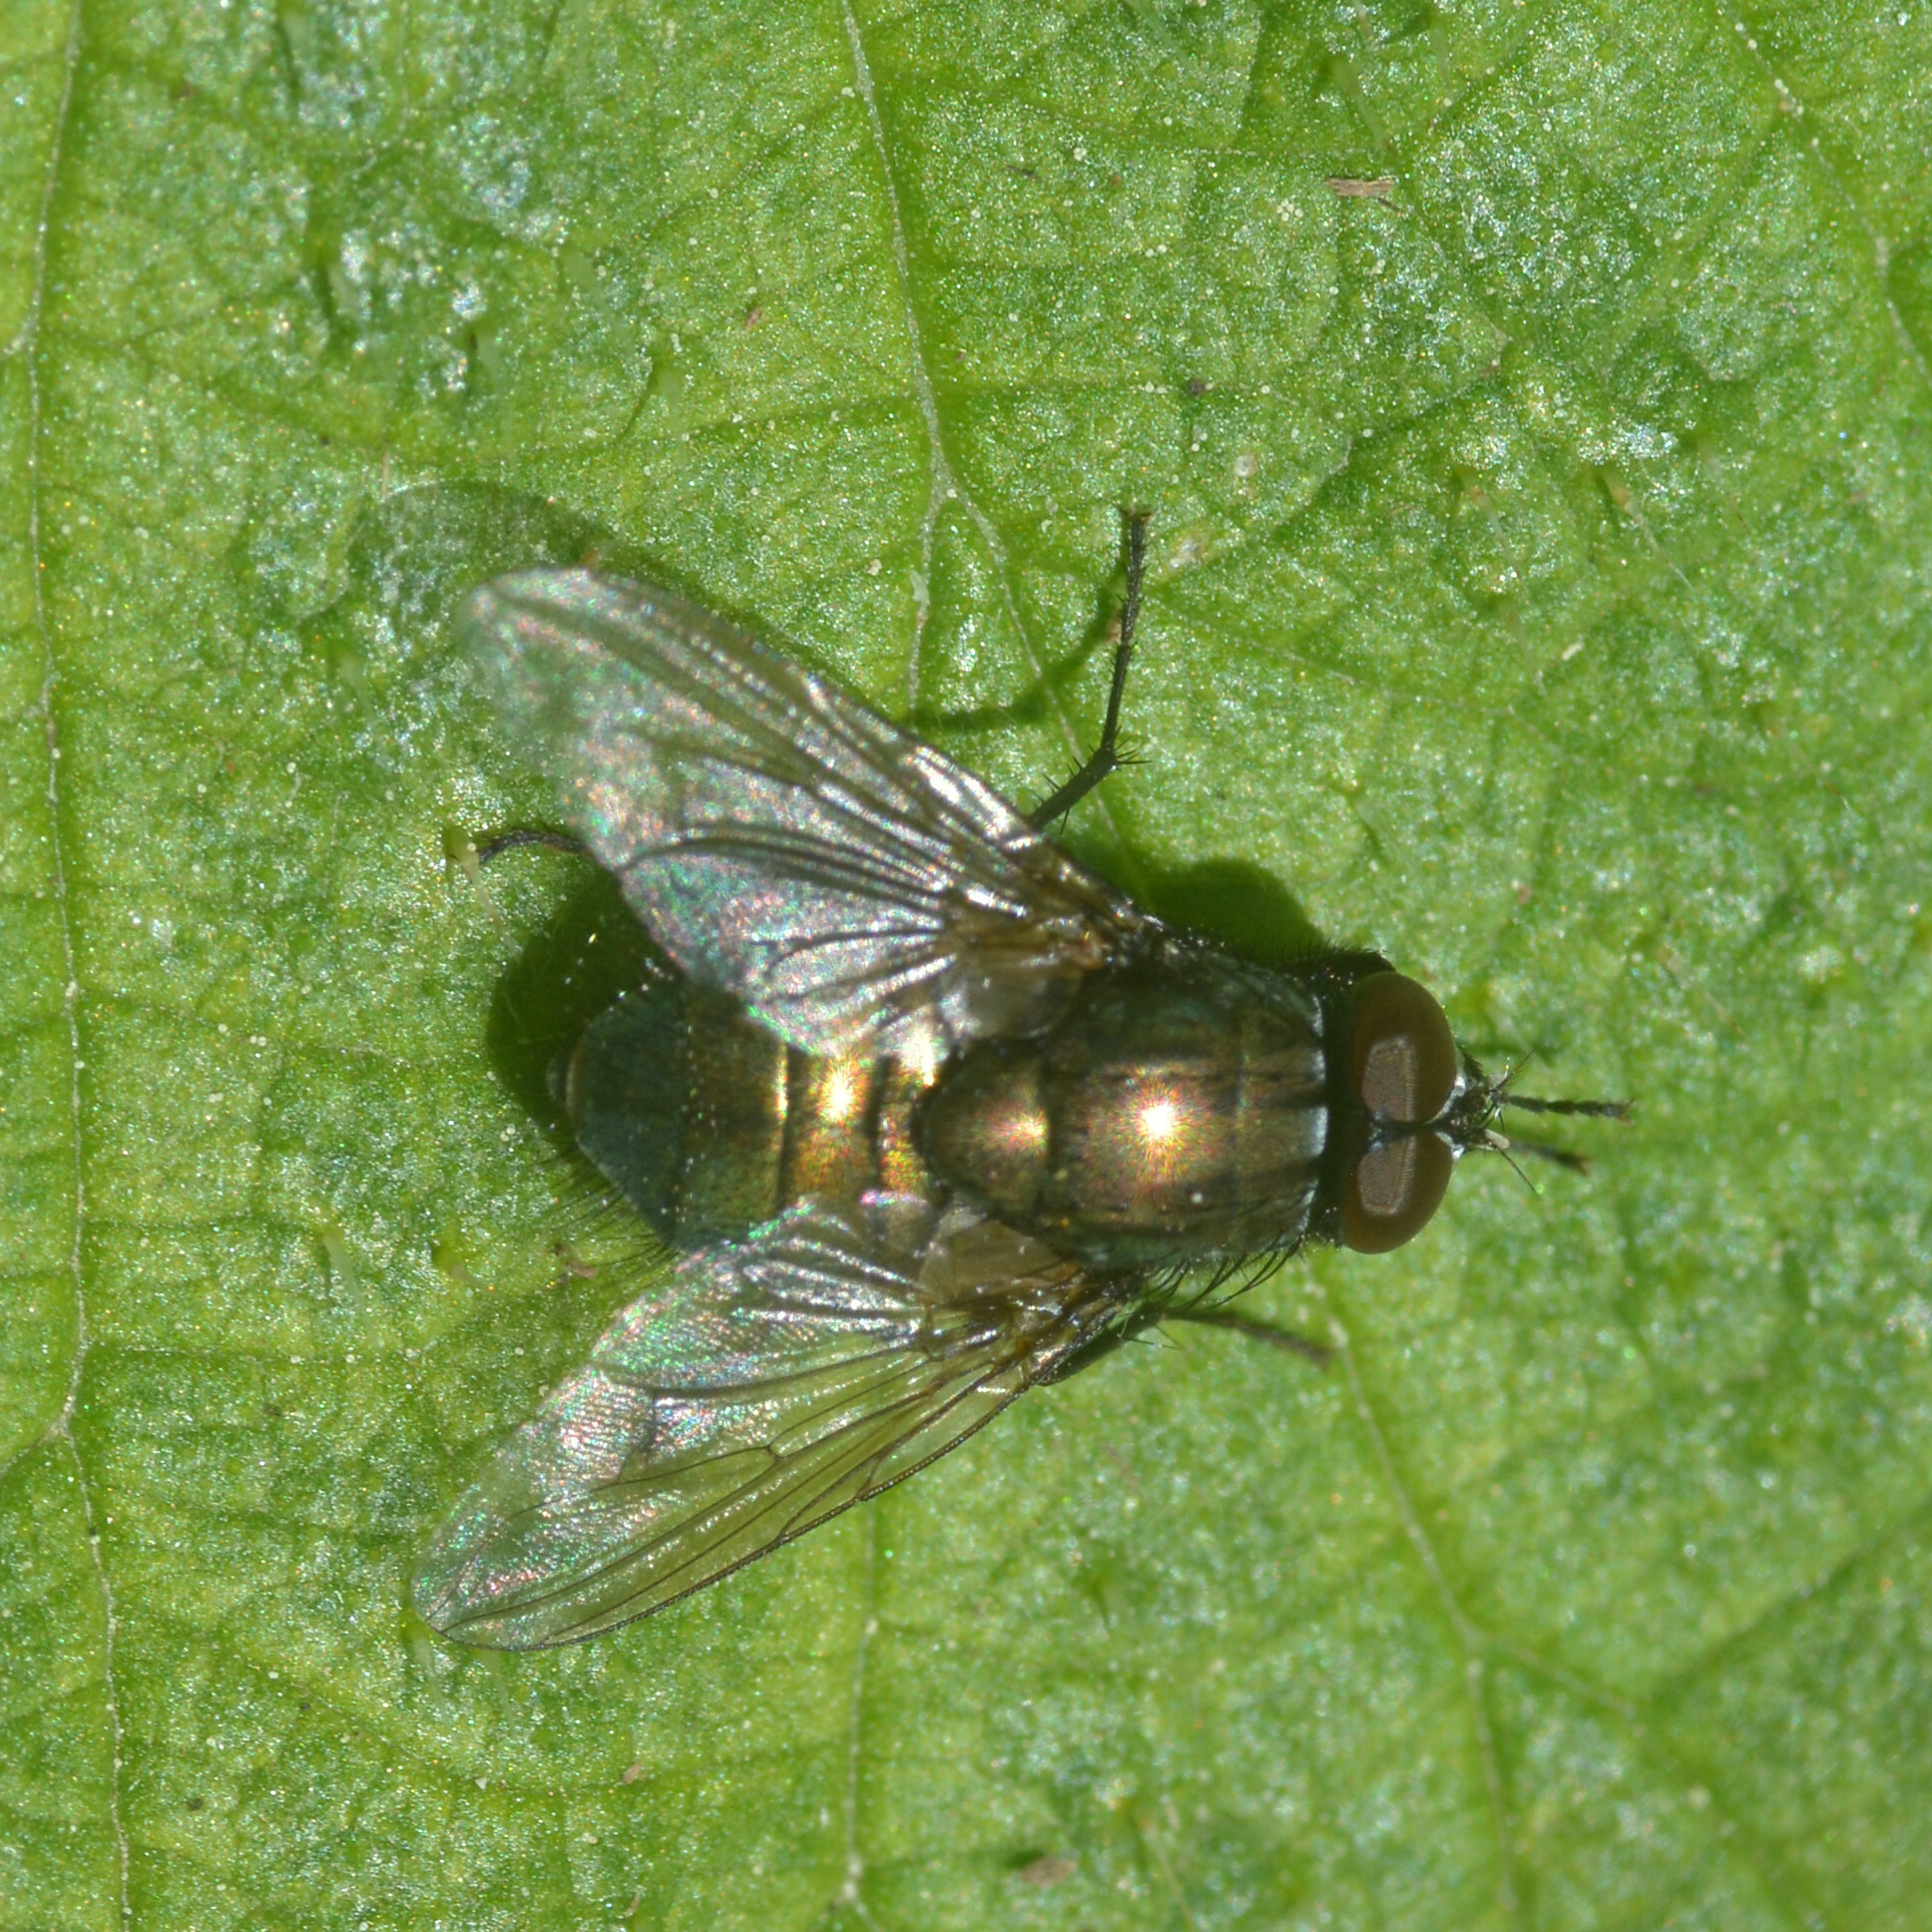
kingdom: Animalia
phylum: Arthropoda
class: Insecta
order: Diptera
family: Muscidae
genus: Dasyphora
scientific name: Dasyphora cyanella
